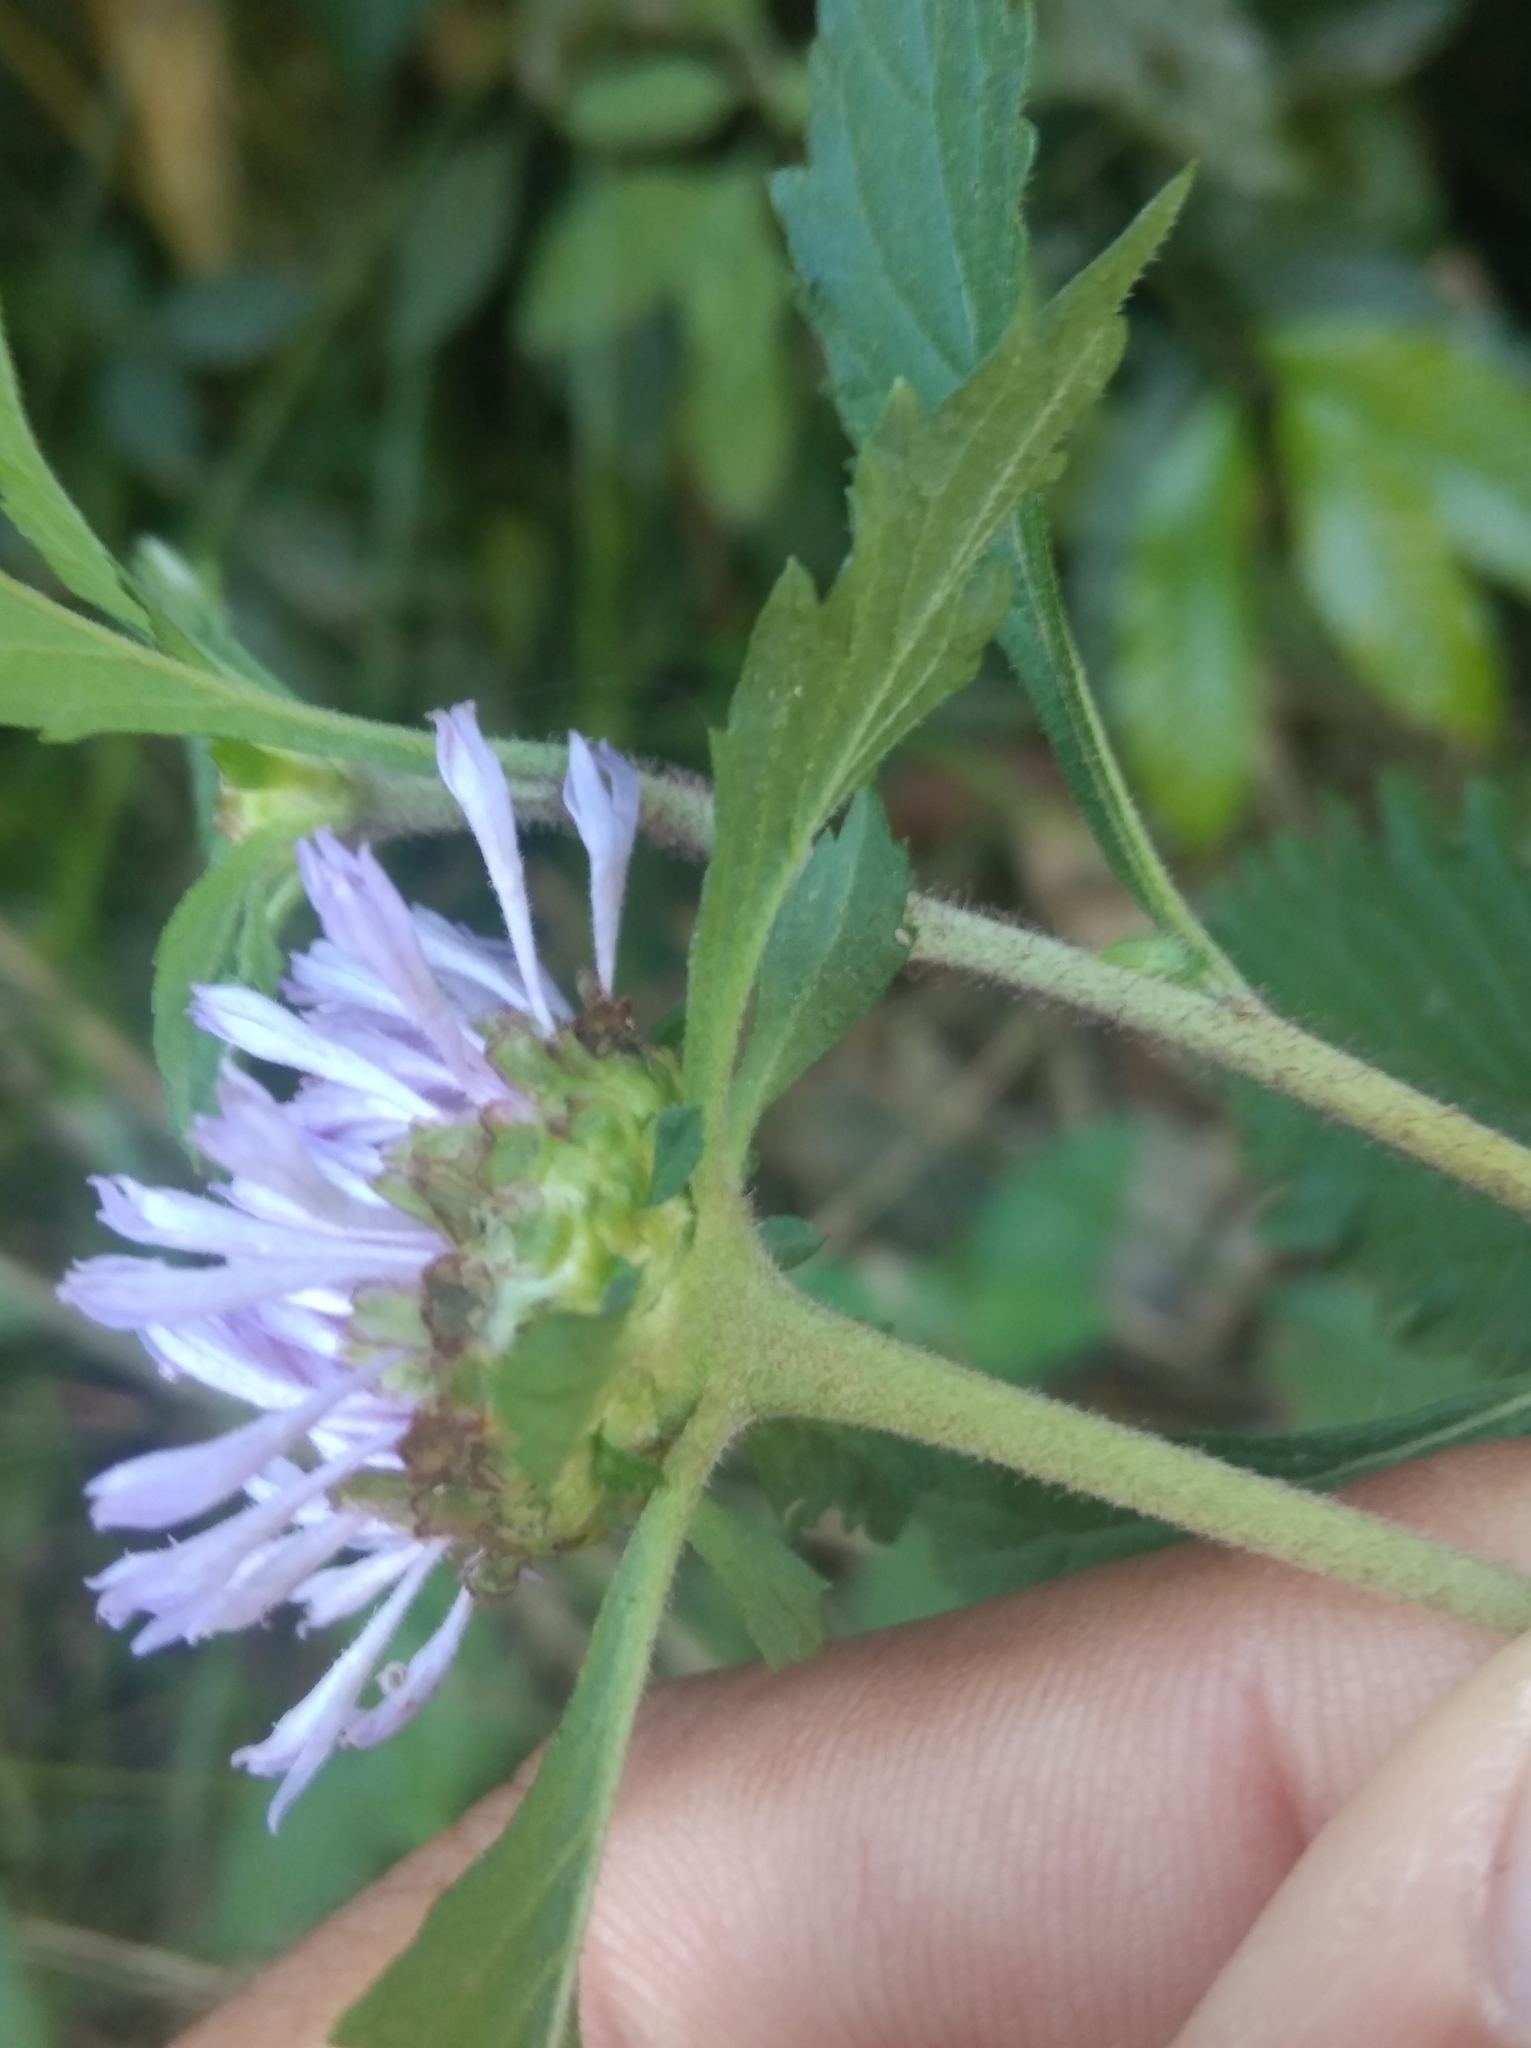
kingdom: Plantae
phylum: Tracheophyta
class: Magnoliopsida
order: Asterales
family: Asteraceae
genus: Centratherum
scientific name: Centratherum punctatum
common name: Larkdaisy
